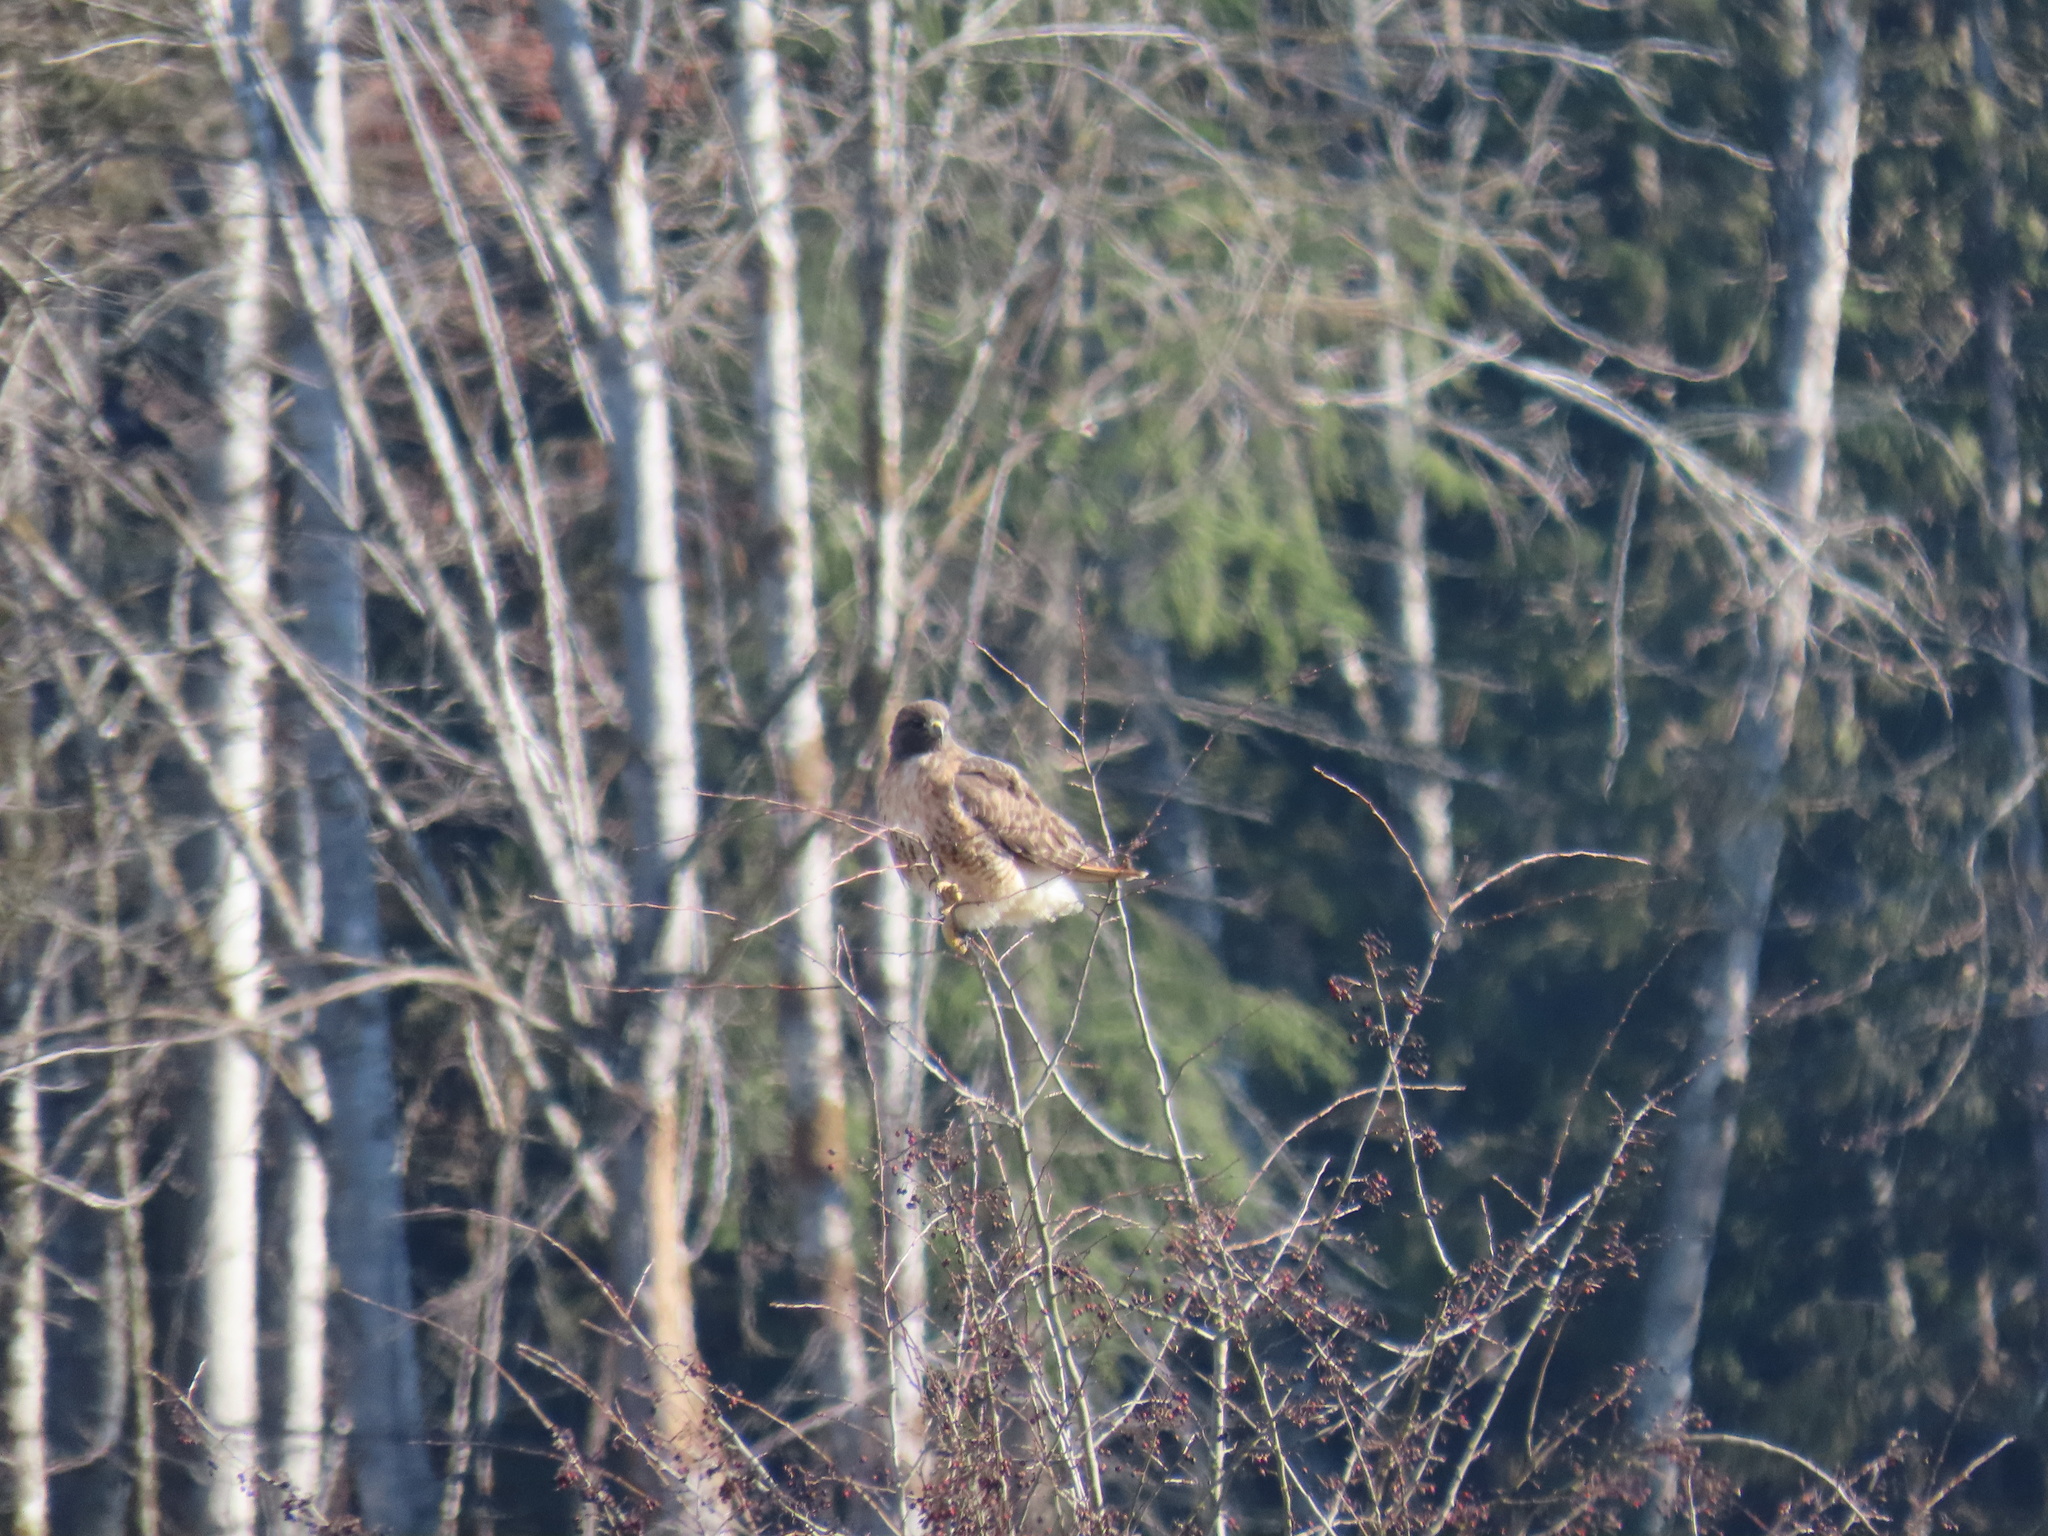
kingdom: Animalia
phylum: Chordata
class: Aves
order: Accipitriformes
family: Accipitridae
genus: Buteo
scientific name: Buteo jamaicensis
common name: Red-tailed hawk
